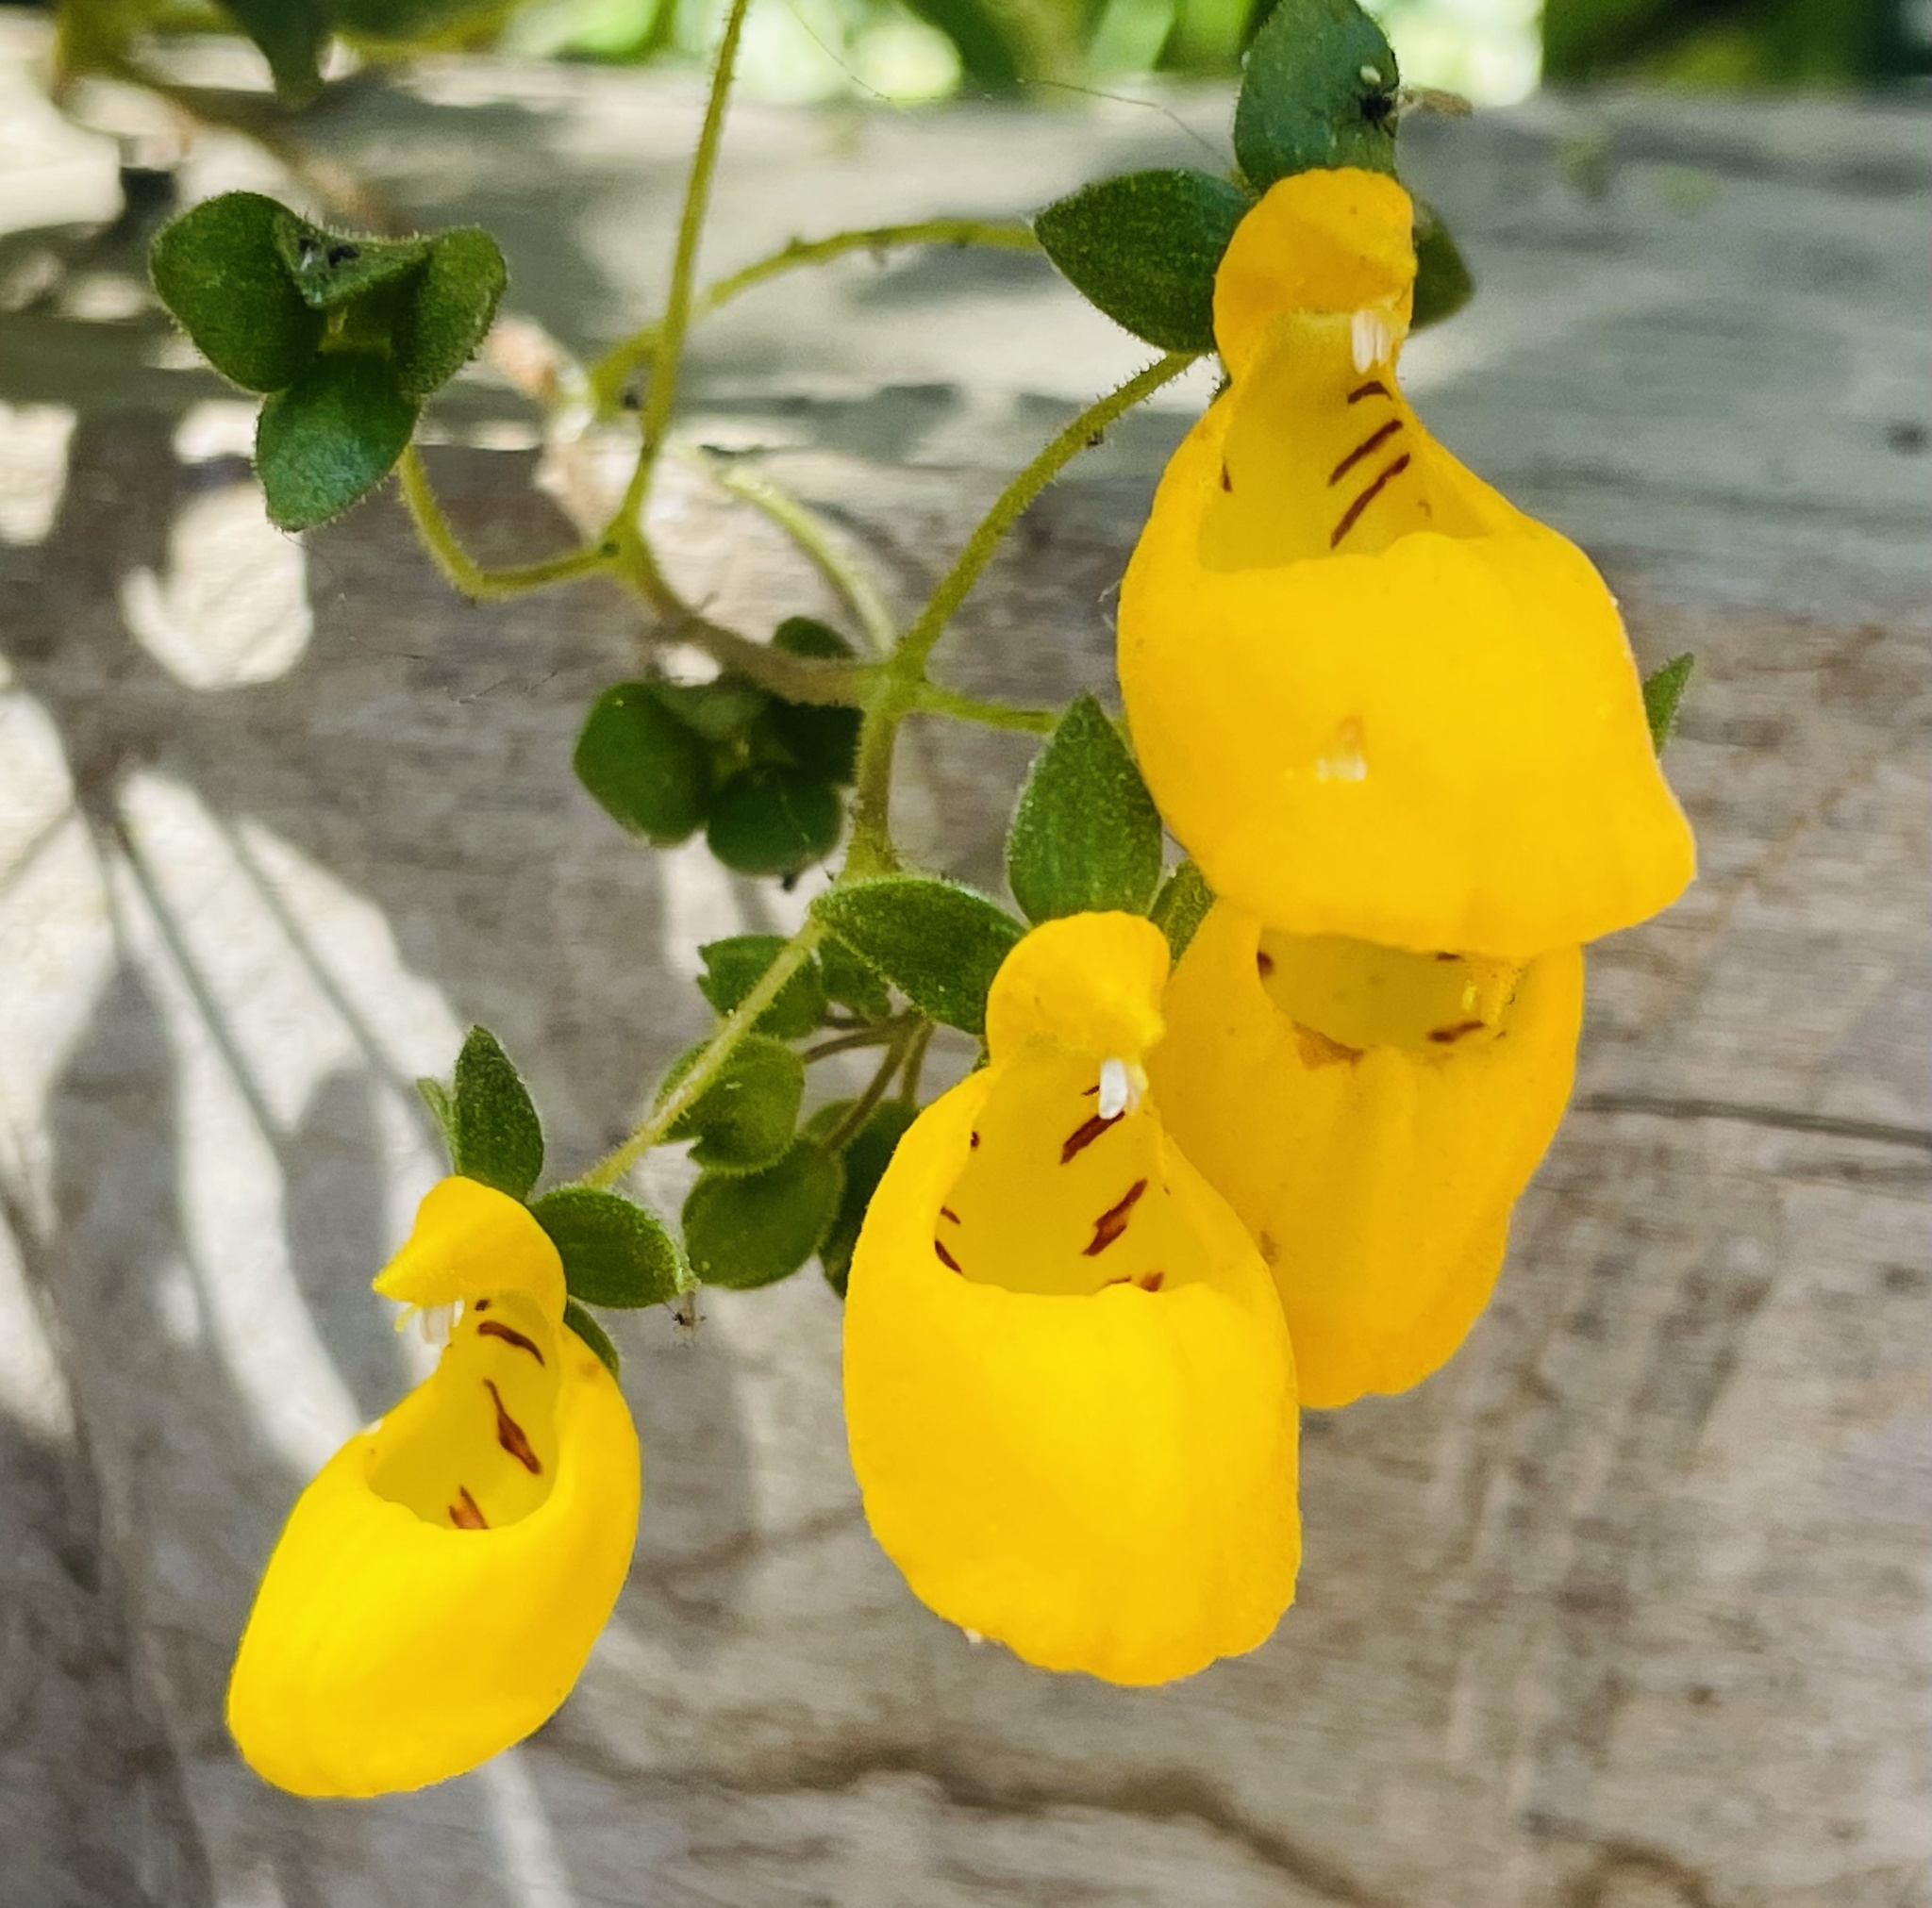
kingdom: Plantae
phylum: Tracheophyta
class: Magnoliopsida
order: Lamiales
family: Calceolariaceae
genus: Calceolaria
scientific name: Calceolaria corymbosa
